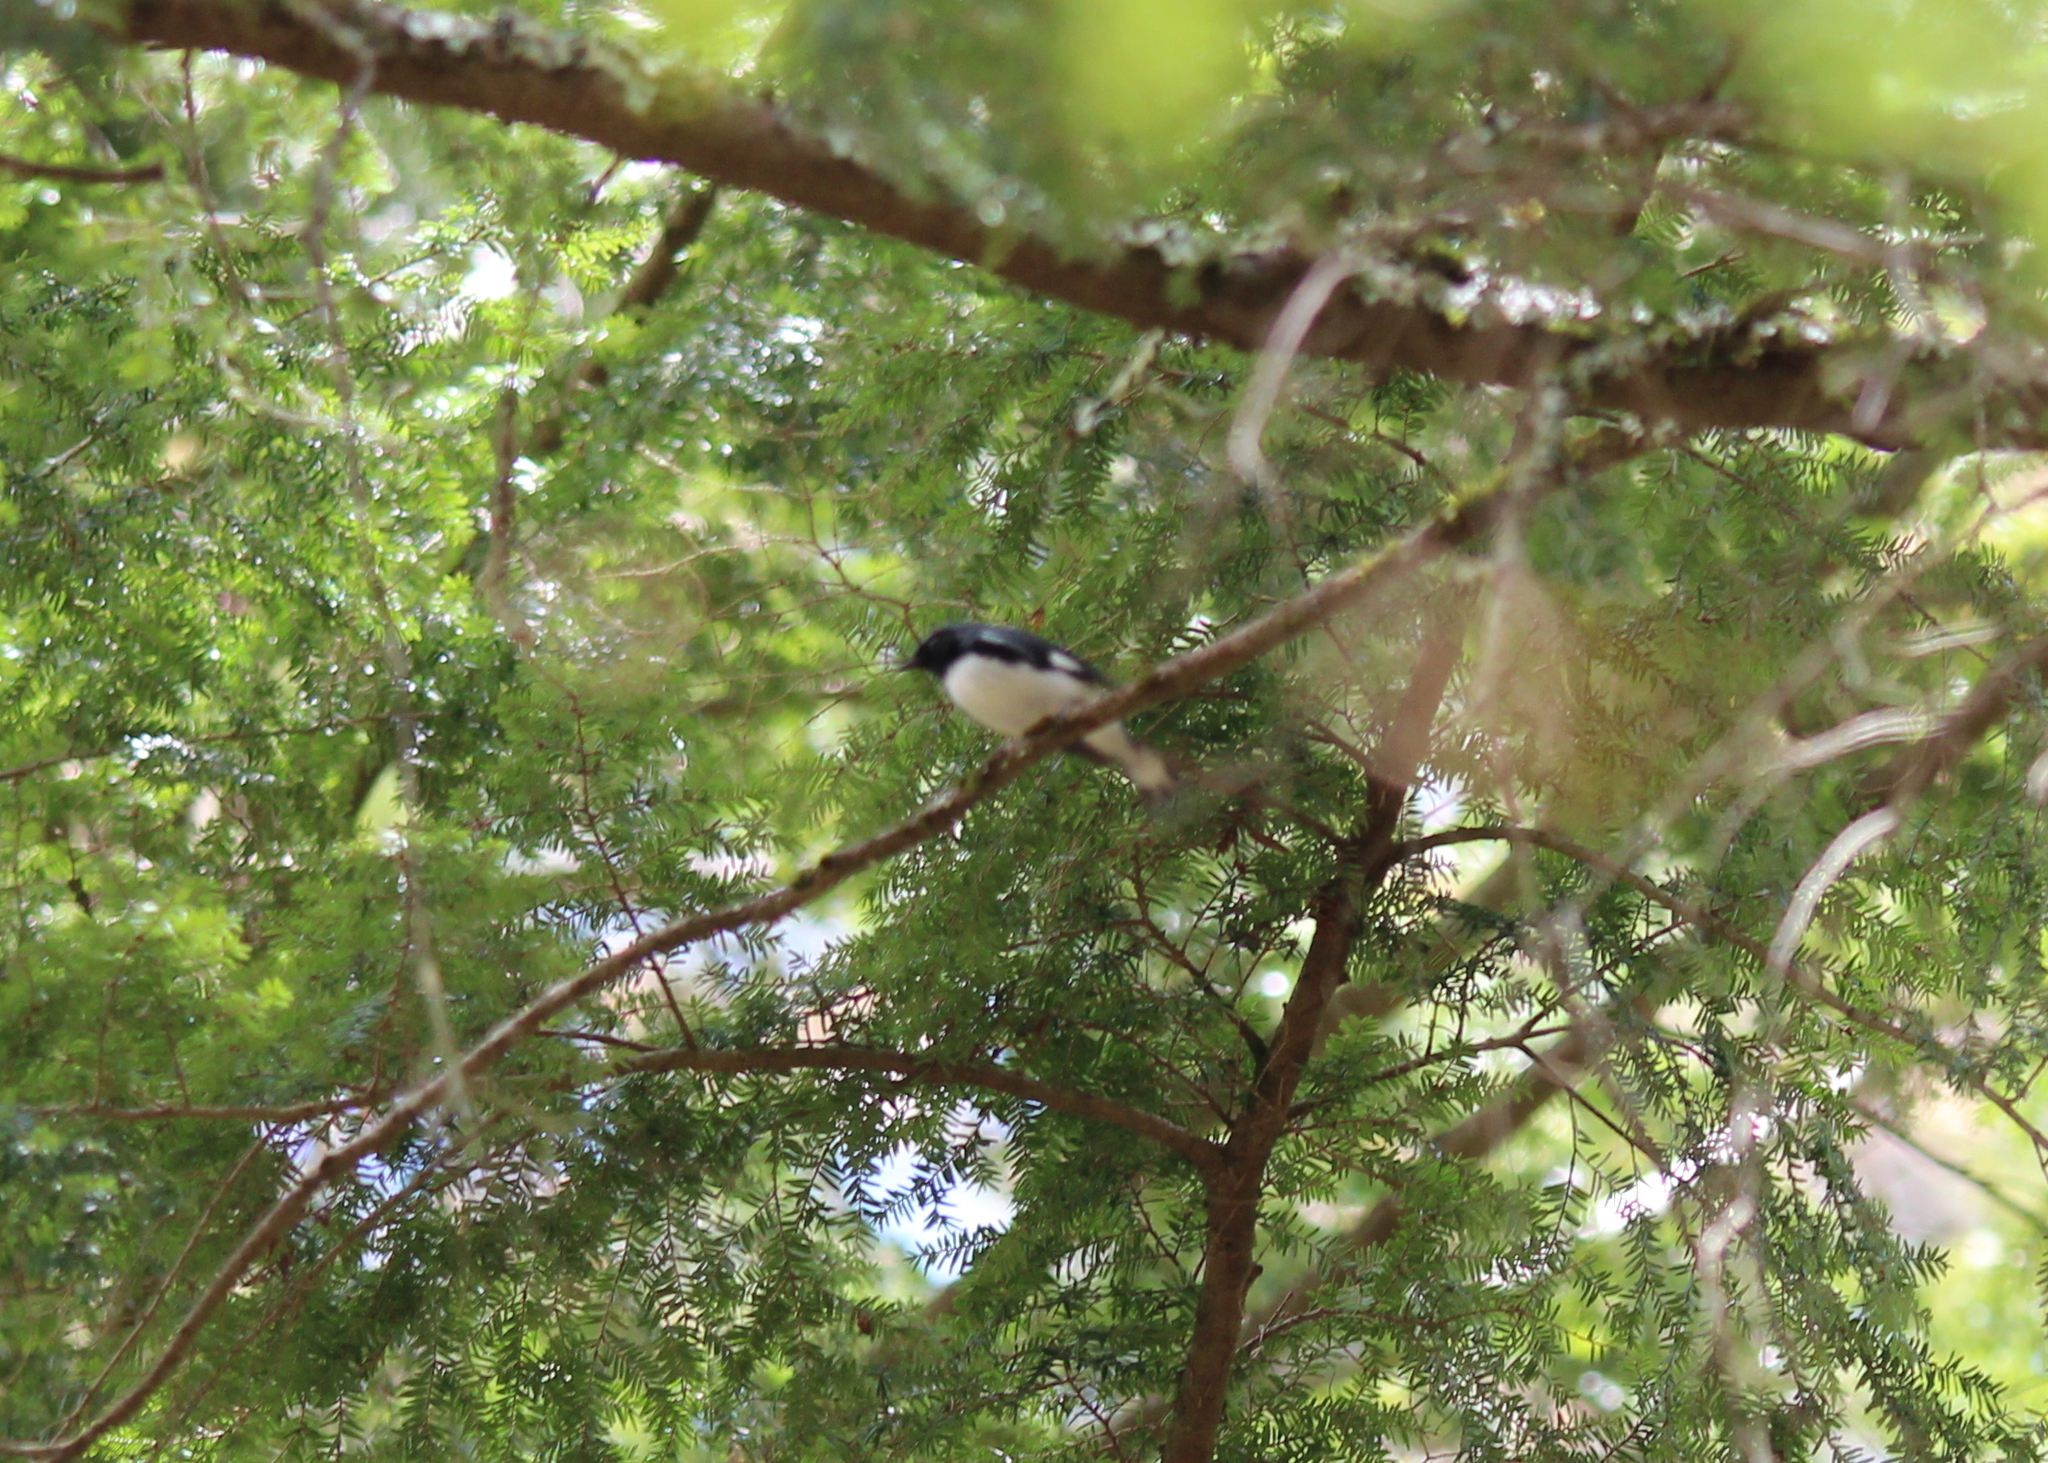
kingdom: Animalia
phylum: Chordata
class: Aves
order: Passeriformes
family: Parulidae
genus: Setophaga
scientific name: Setophaga caerulescens
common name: Black-throated blue warbler
